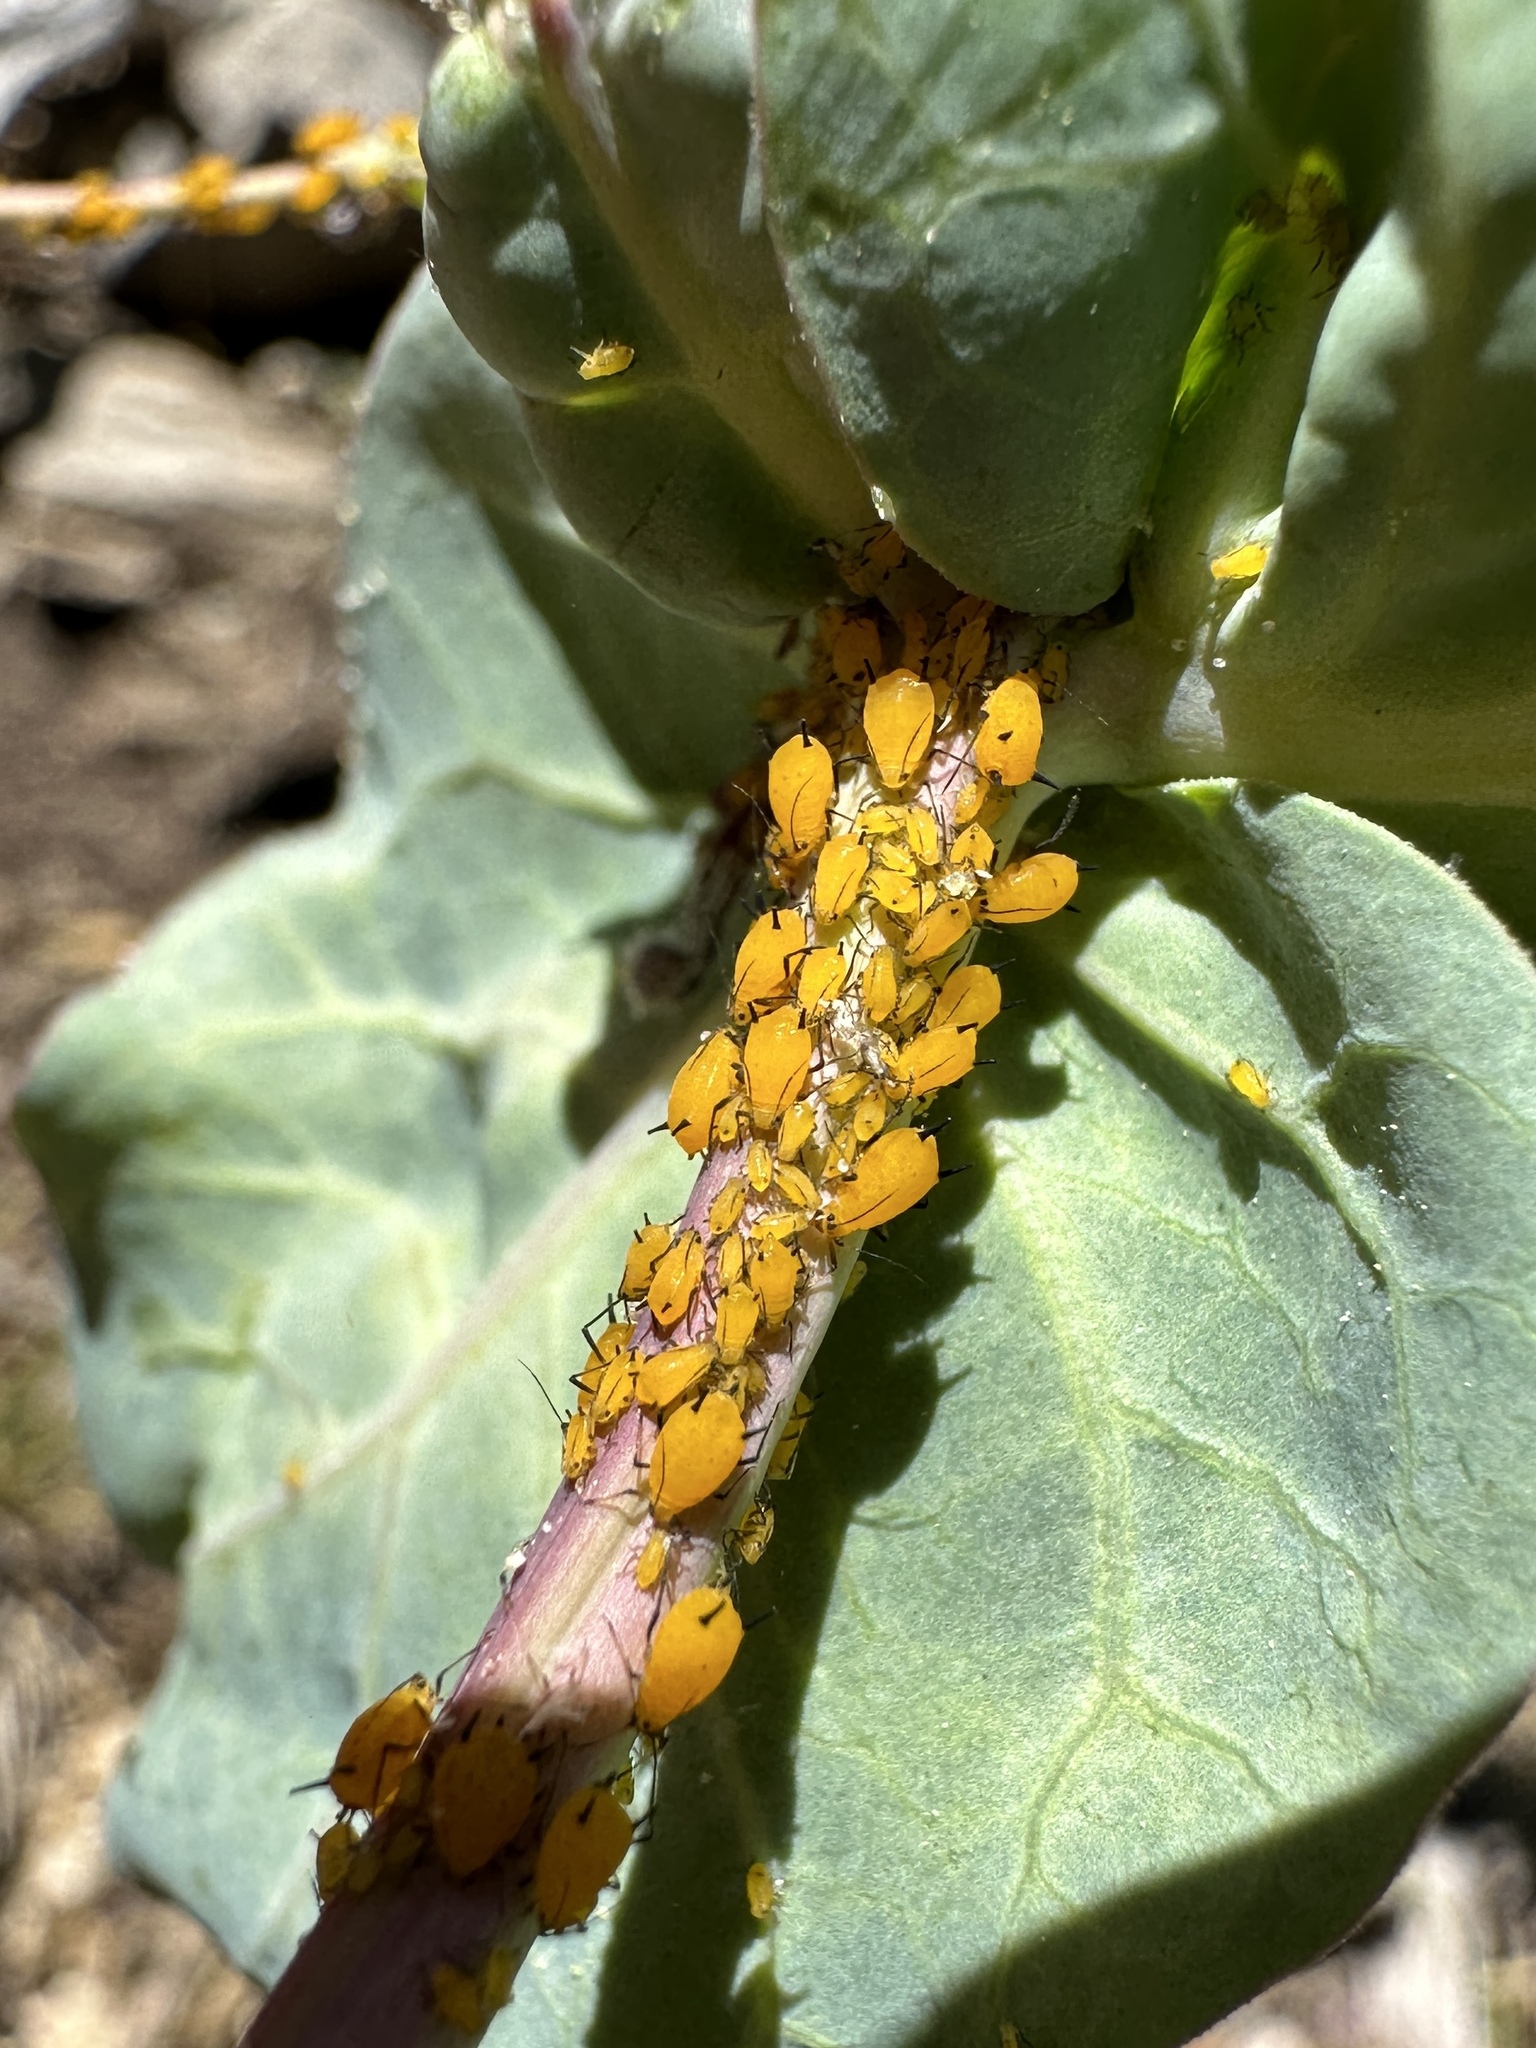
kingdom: Animalia
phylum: Arthropoda
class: Insecta
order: Hemiptera
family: Aphididae
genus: Aphis
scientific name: Aphis nerii
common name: Oleander aphid
